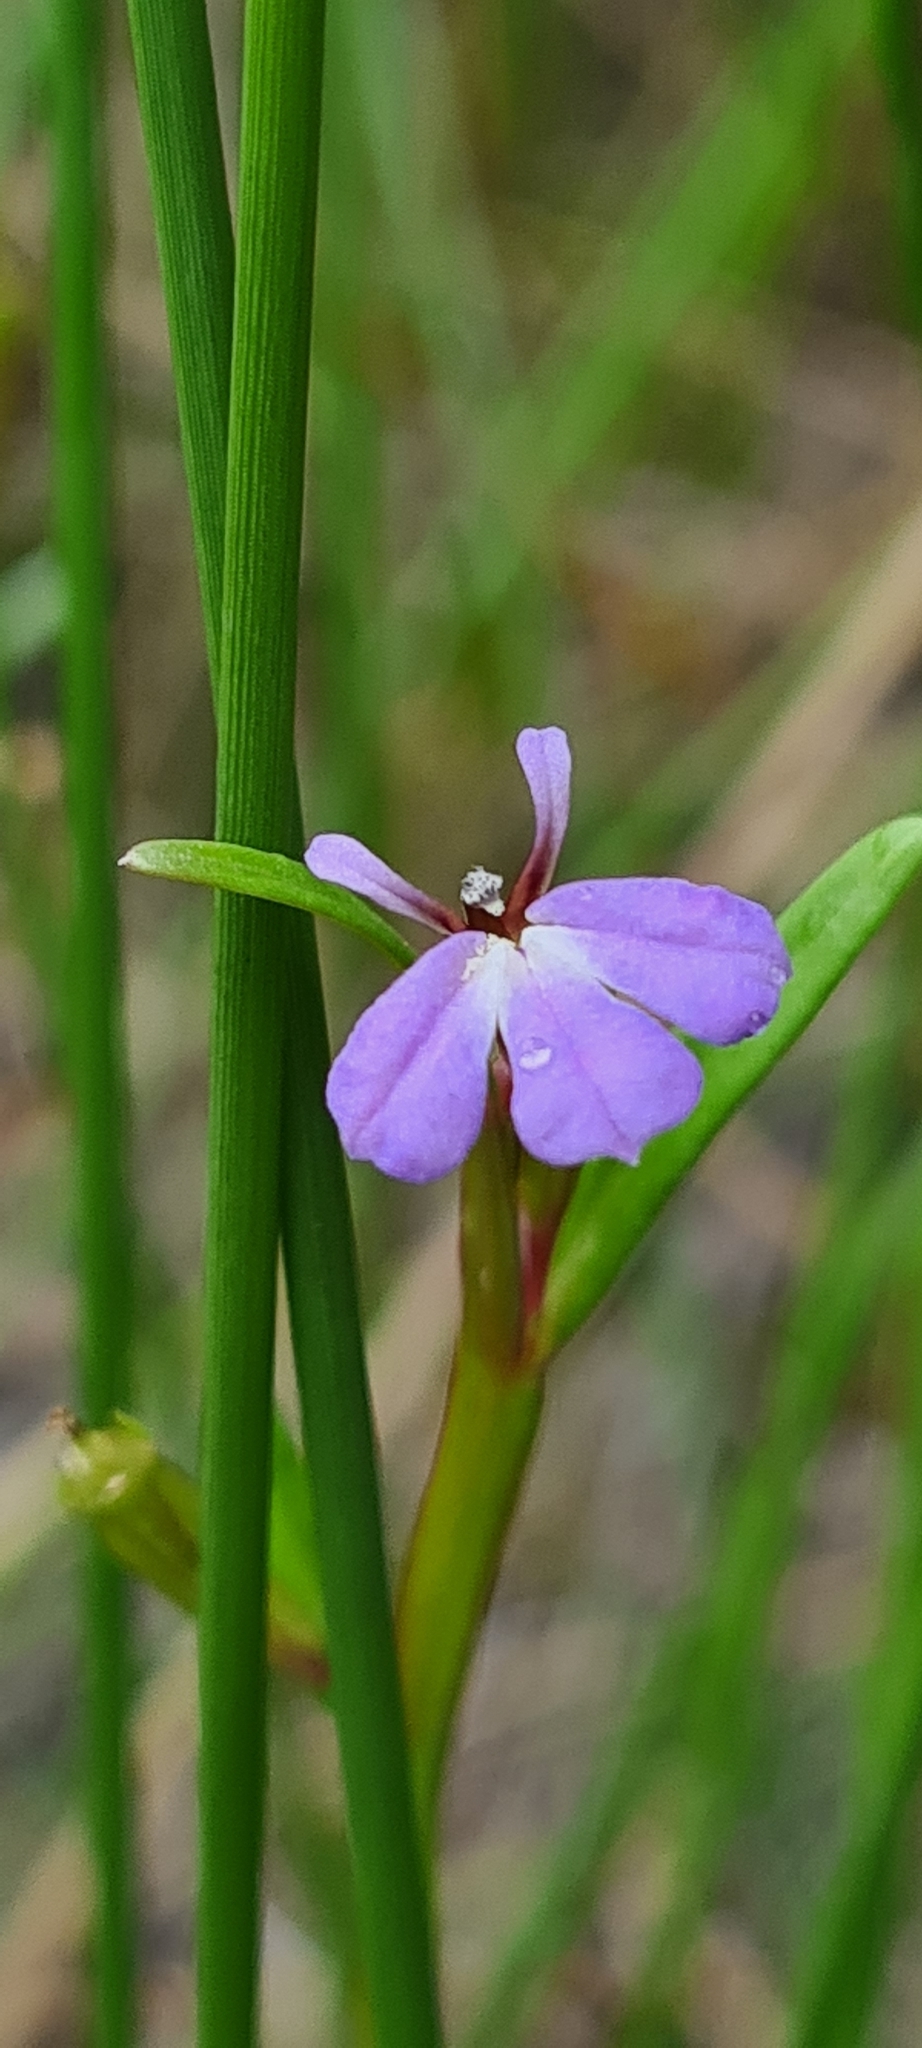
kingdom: Plantae
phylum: Tracheophyta
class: Magnoliopsida
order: Asterales
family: Campanulaceae
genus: Lobelia
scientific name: Lobelia anceps
